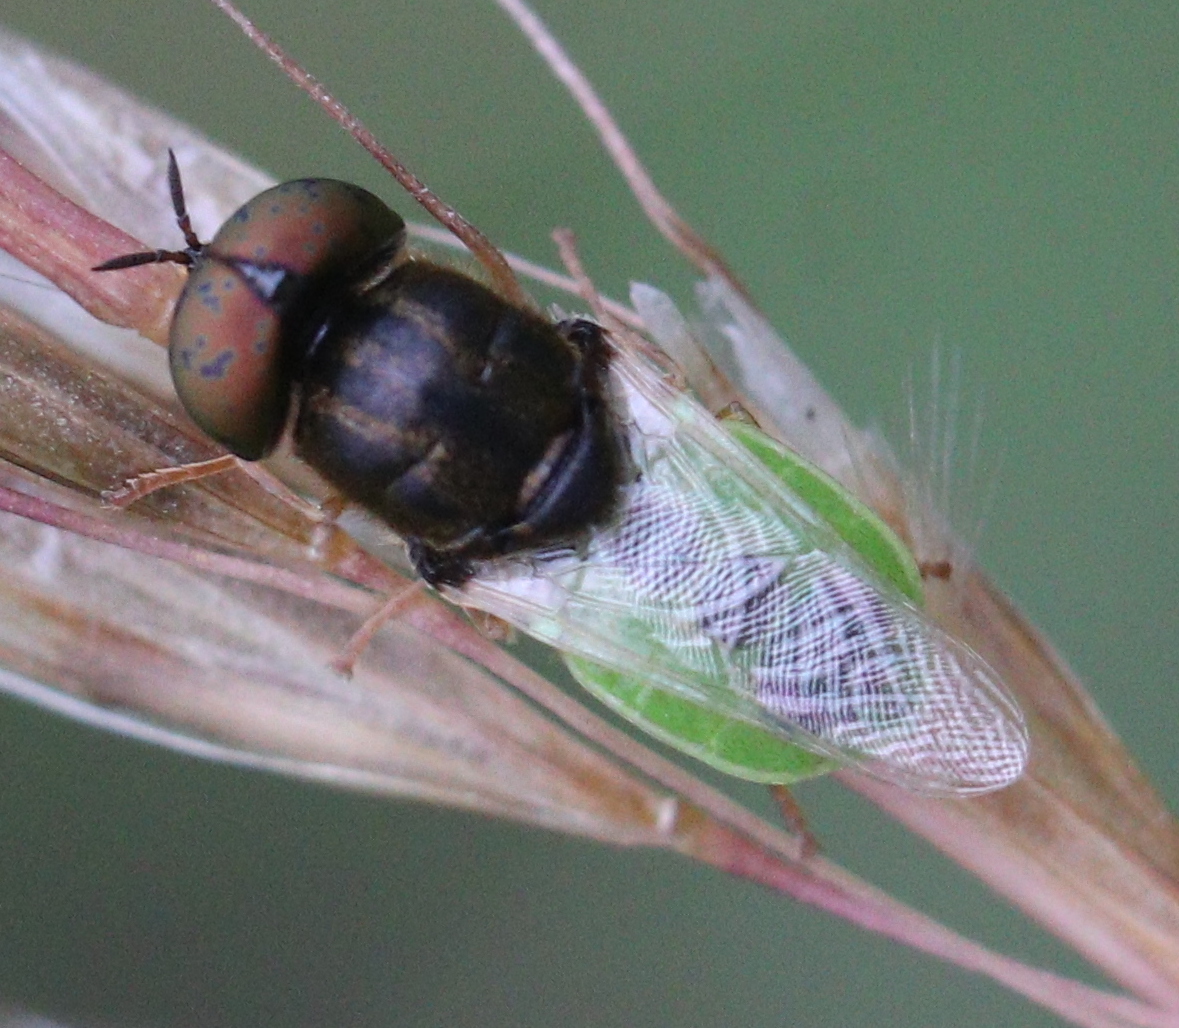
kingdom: Animalia
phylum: Arthropoda
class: Insecta
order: Diptera
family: Stratiomyidae
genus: Oplodontha
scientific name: Oplodontha viridula
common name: Common green colonel
